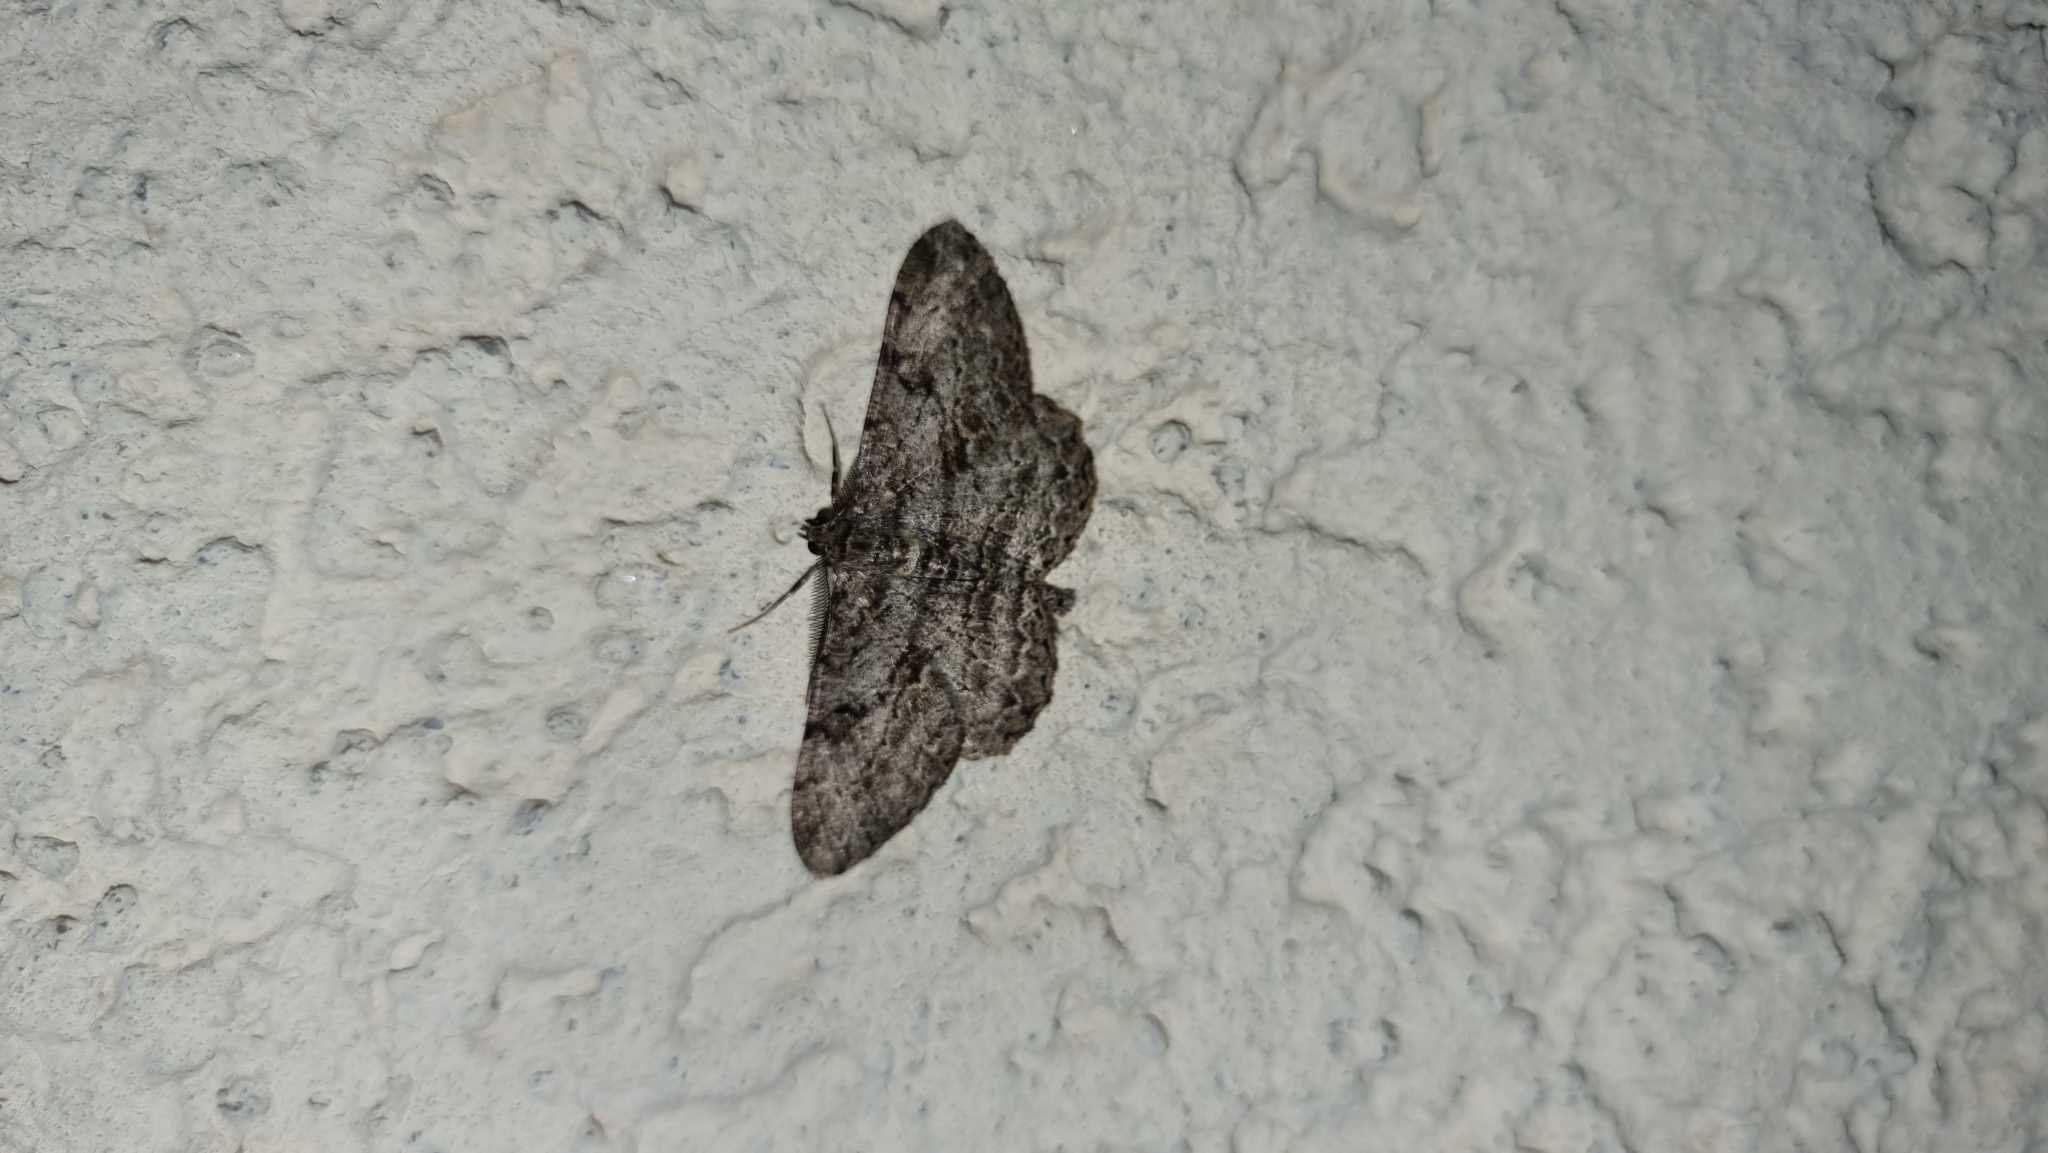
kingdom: Animalia
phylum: Arthropoda
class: Insecta
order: Lepidoptera
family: Geometridae
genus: Peribatodes
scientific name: Peribatodes rhomboidaria
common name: Willow beauty
